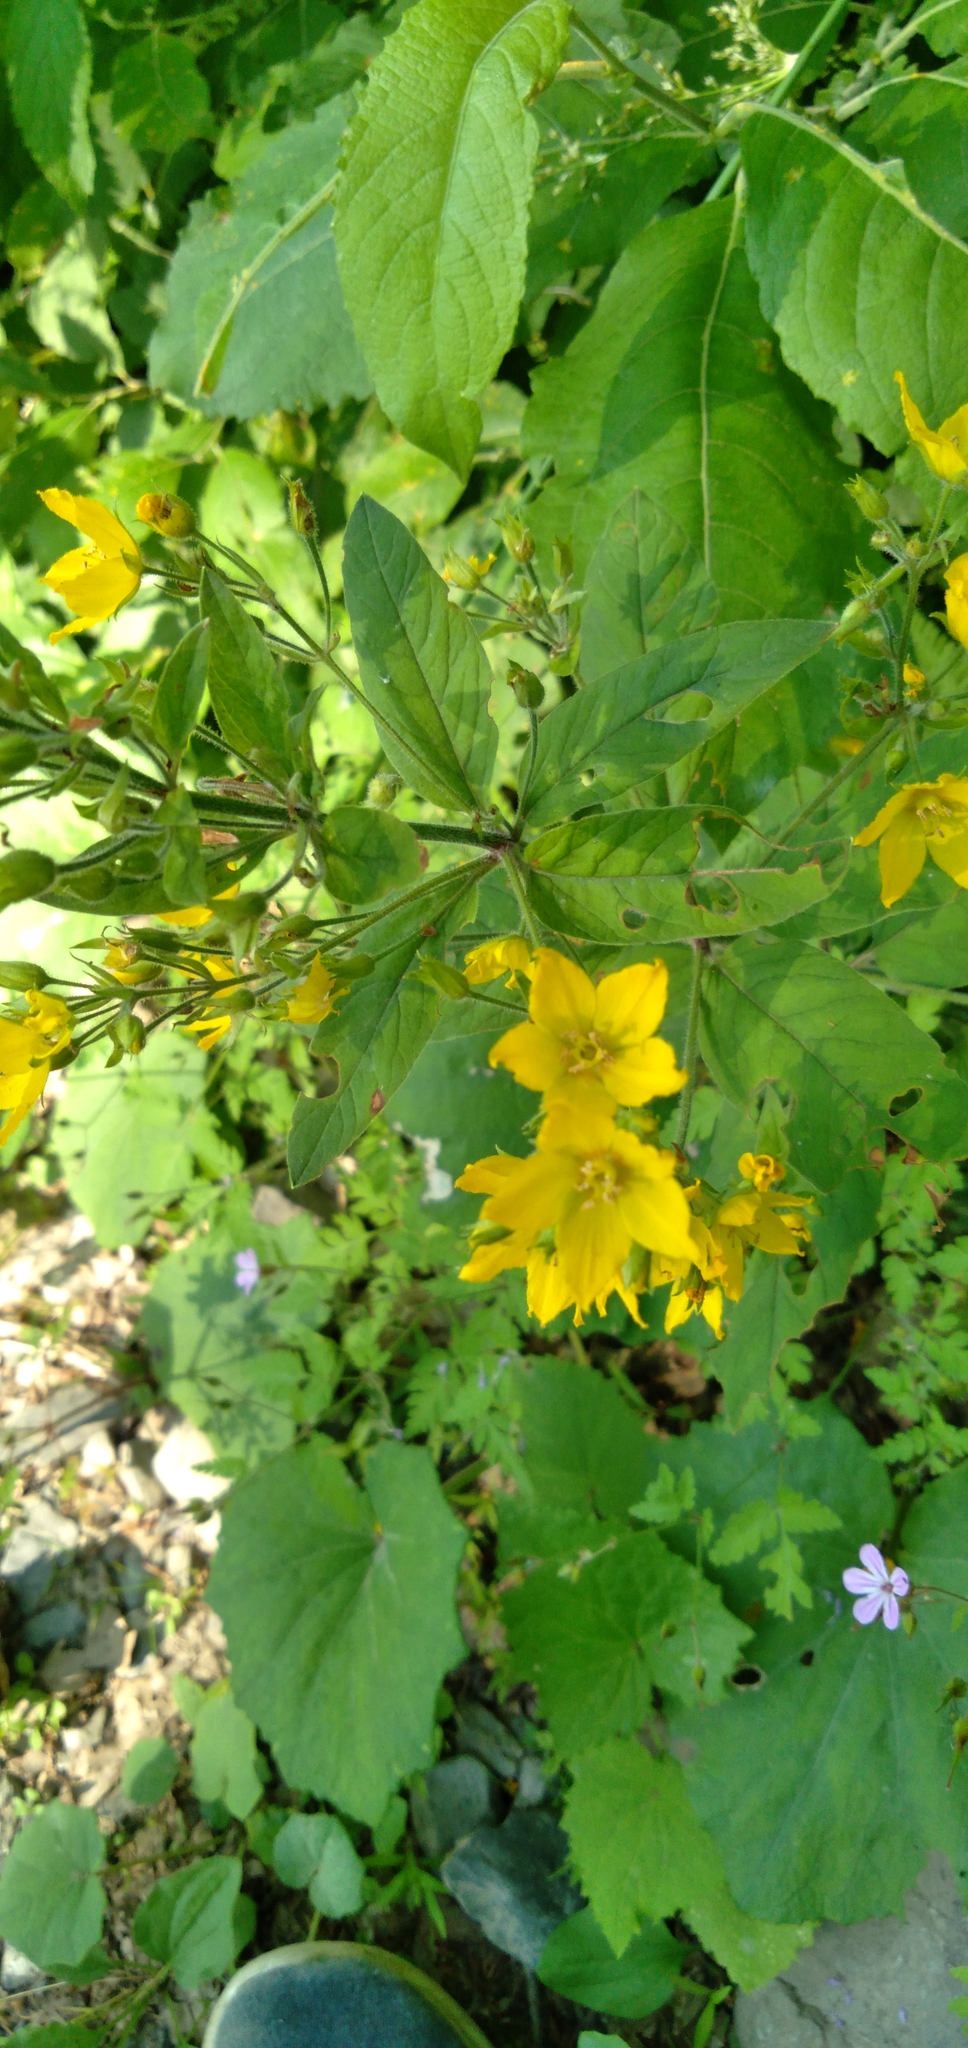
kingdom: Plantae
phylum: Tracheophyta
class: Magnoliopsida
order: Ericales
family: Primulaceae
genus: Lysimachia
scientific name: Lysimachia verticillaris
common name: Yellow loosestrife
